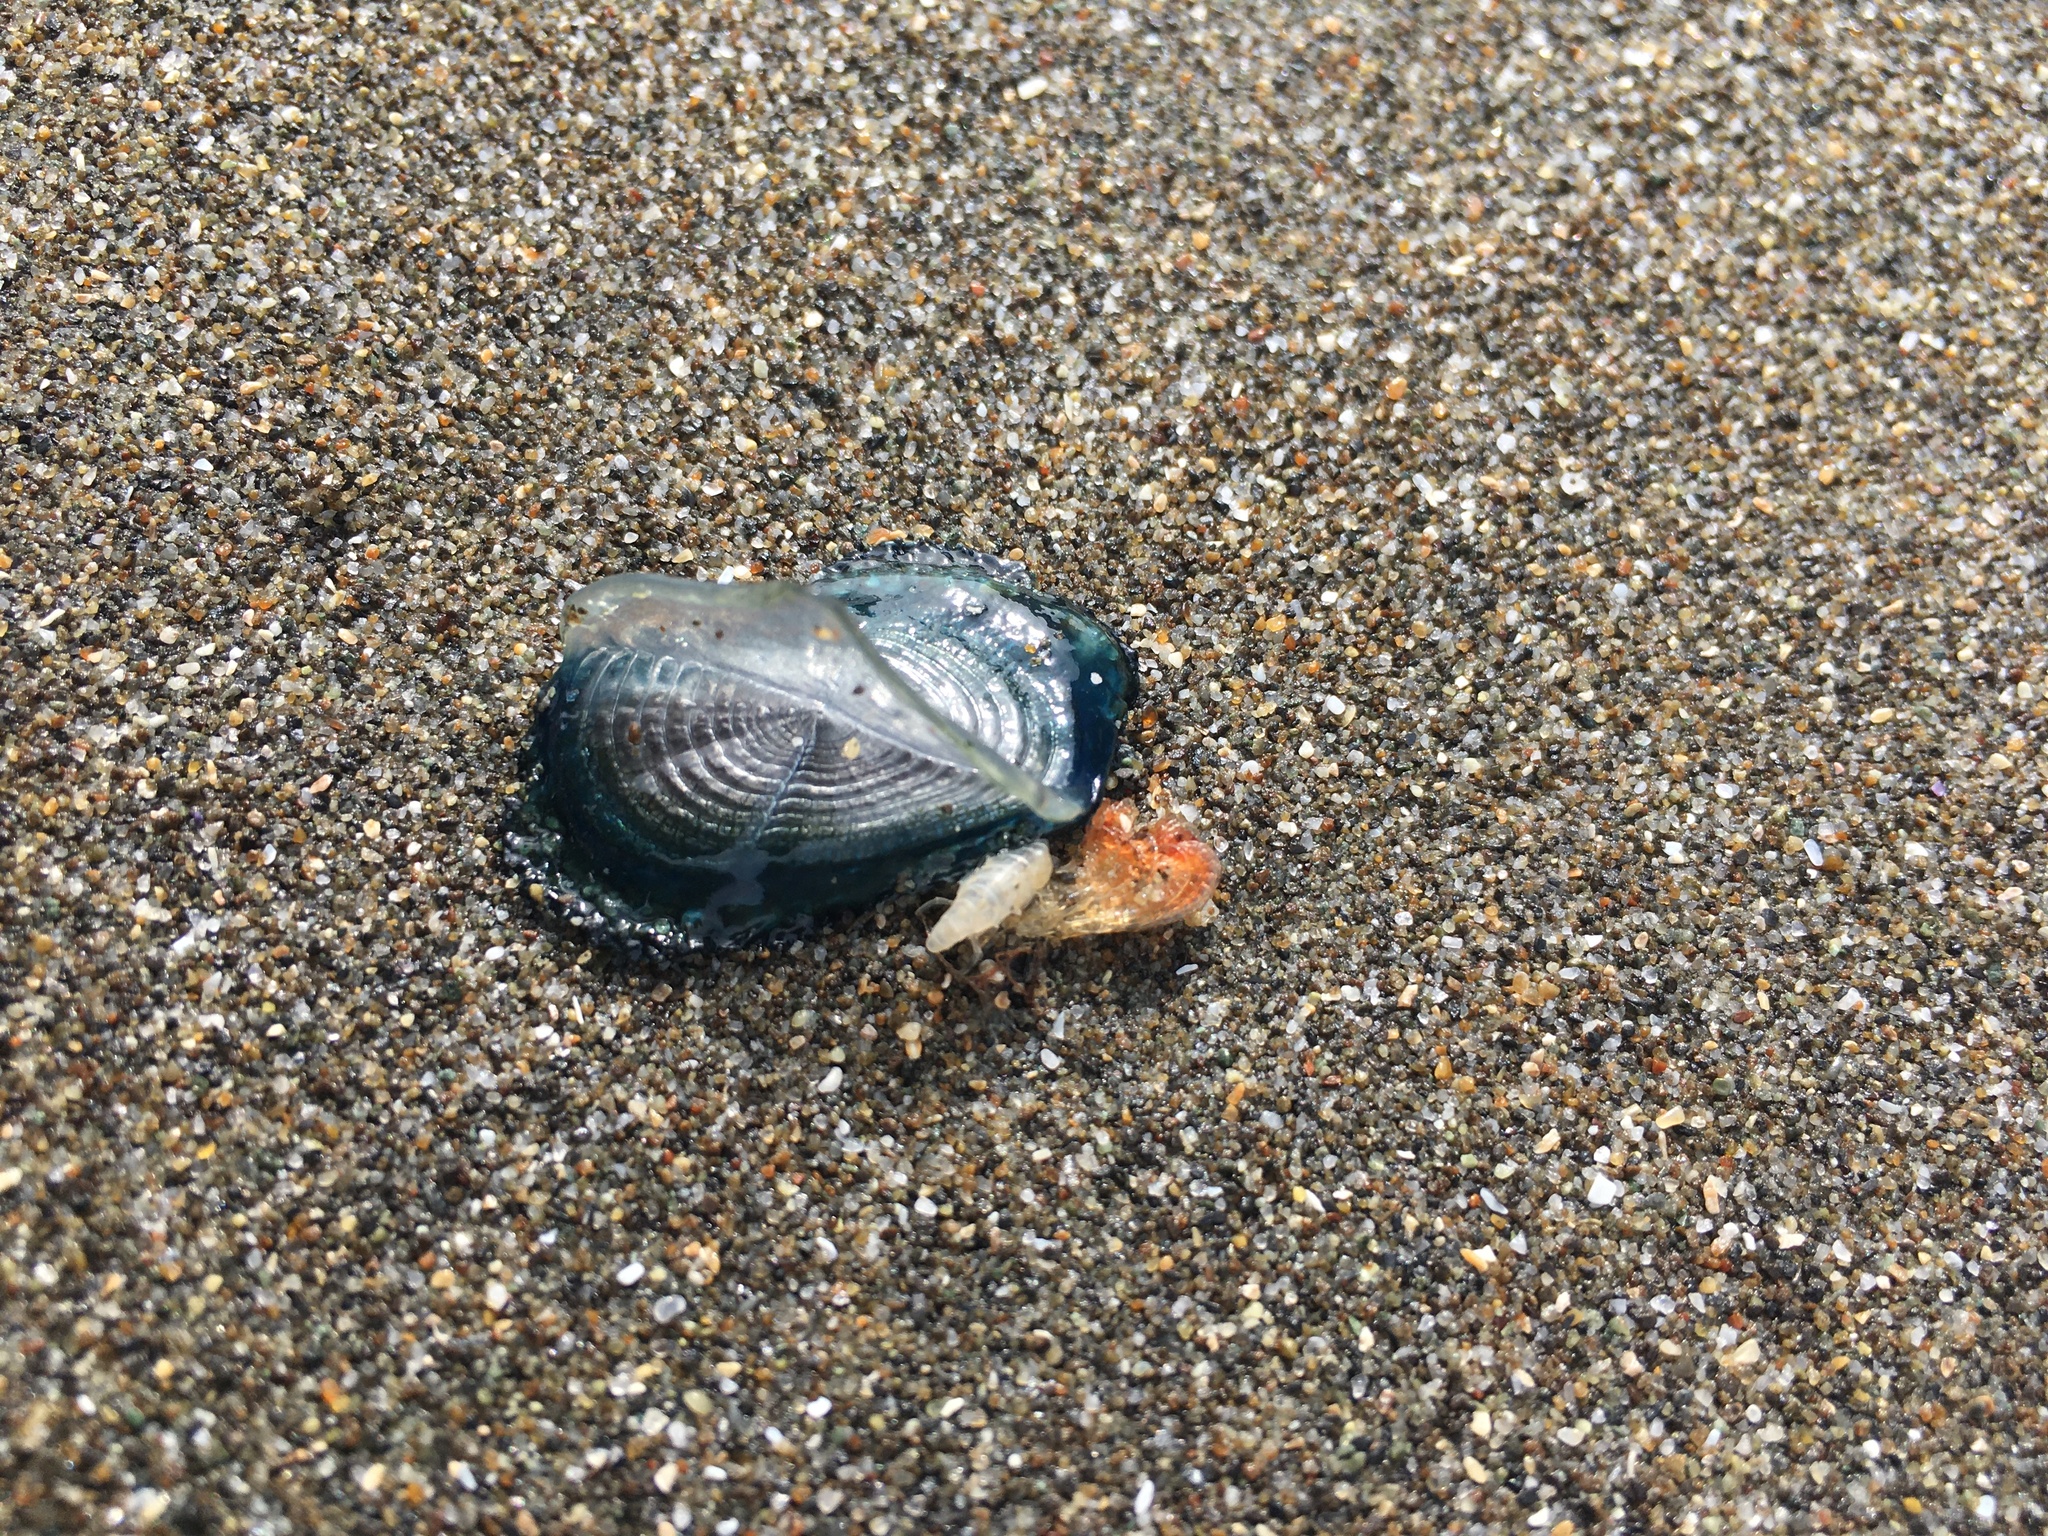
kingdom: Animalia
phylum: Cnidaria
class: Hydrozoa
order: Anthoathecata
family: Porpitidae
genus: Velella
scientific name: Velella velella
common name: By-the-wind-sailor
